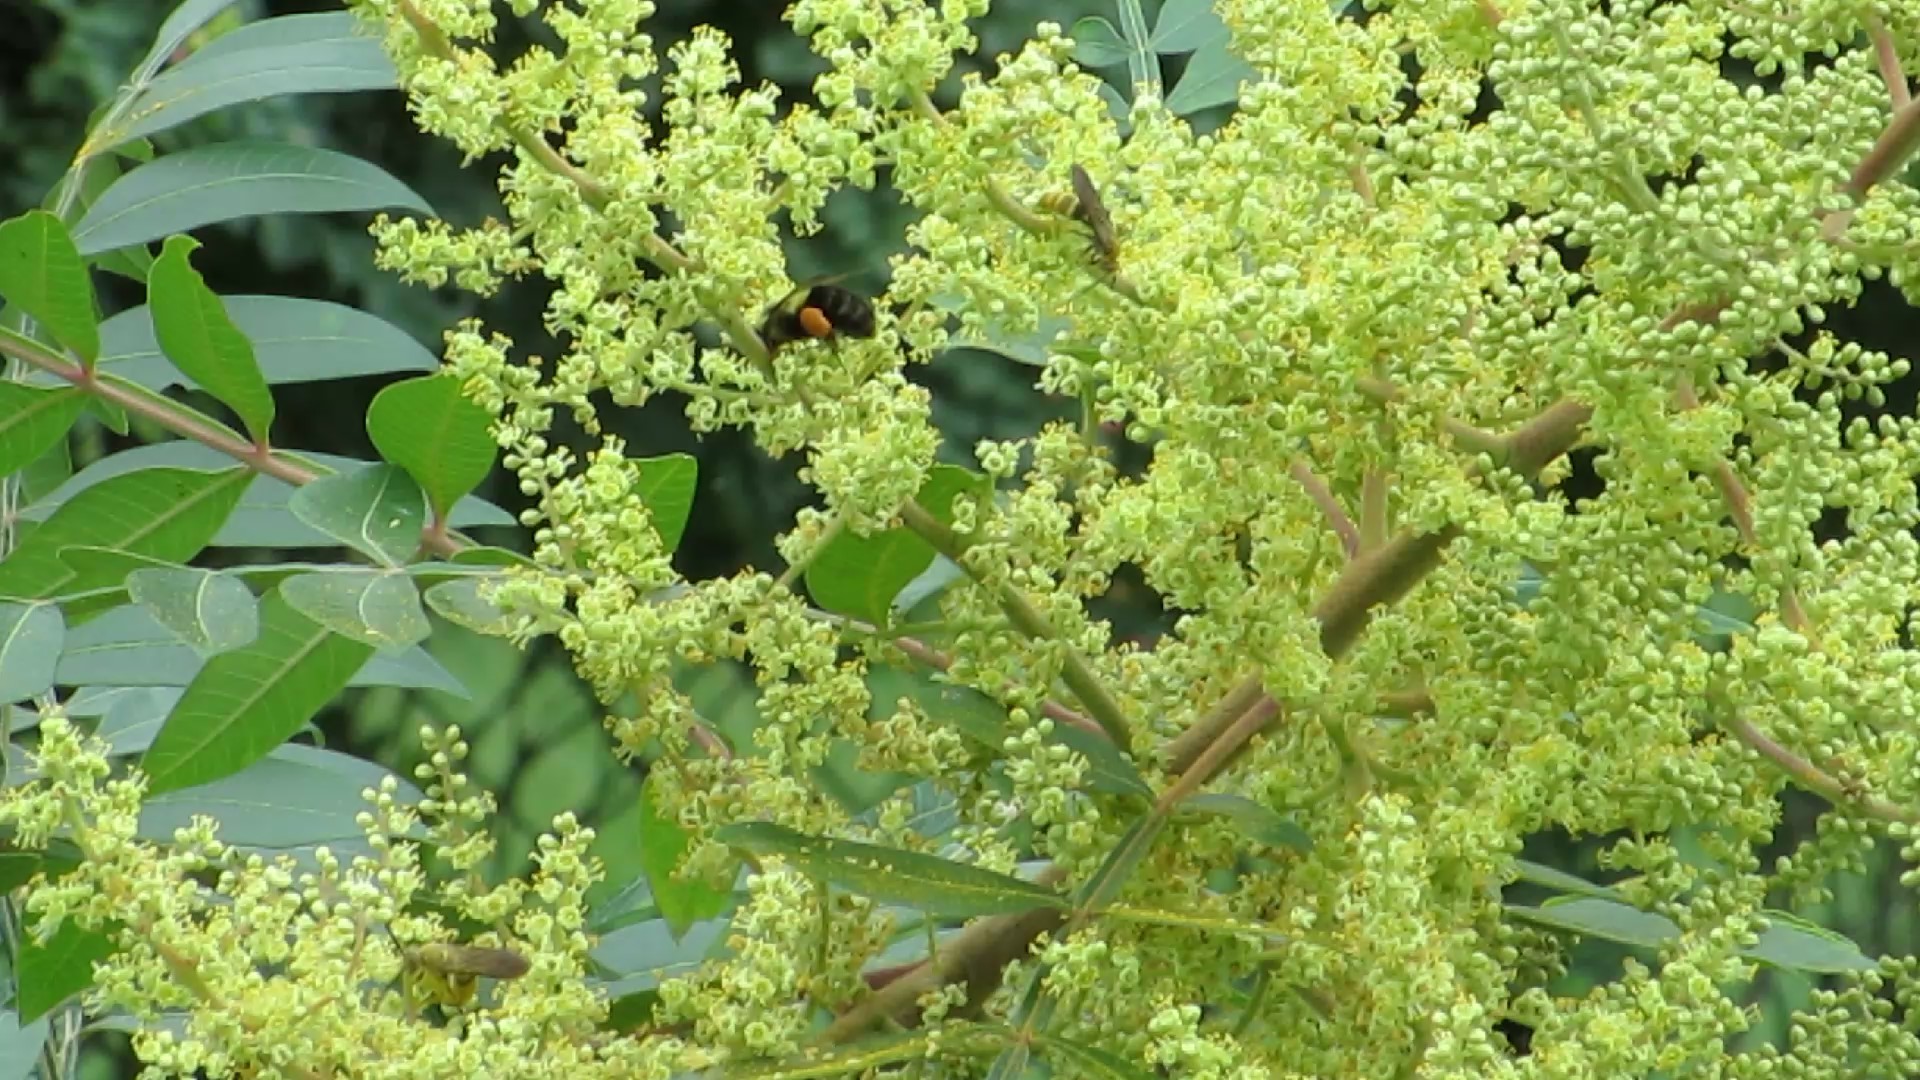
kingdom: Animalia
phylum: Arthropoda
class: Insecta
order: Hymenoptera
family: Apidae
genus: Bombus
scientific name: Bombus impatiens
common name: Common eastern bumble bee
